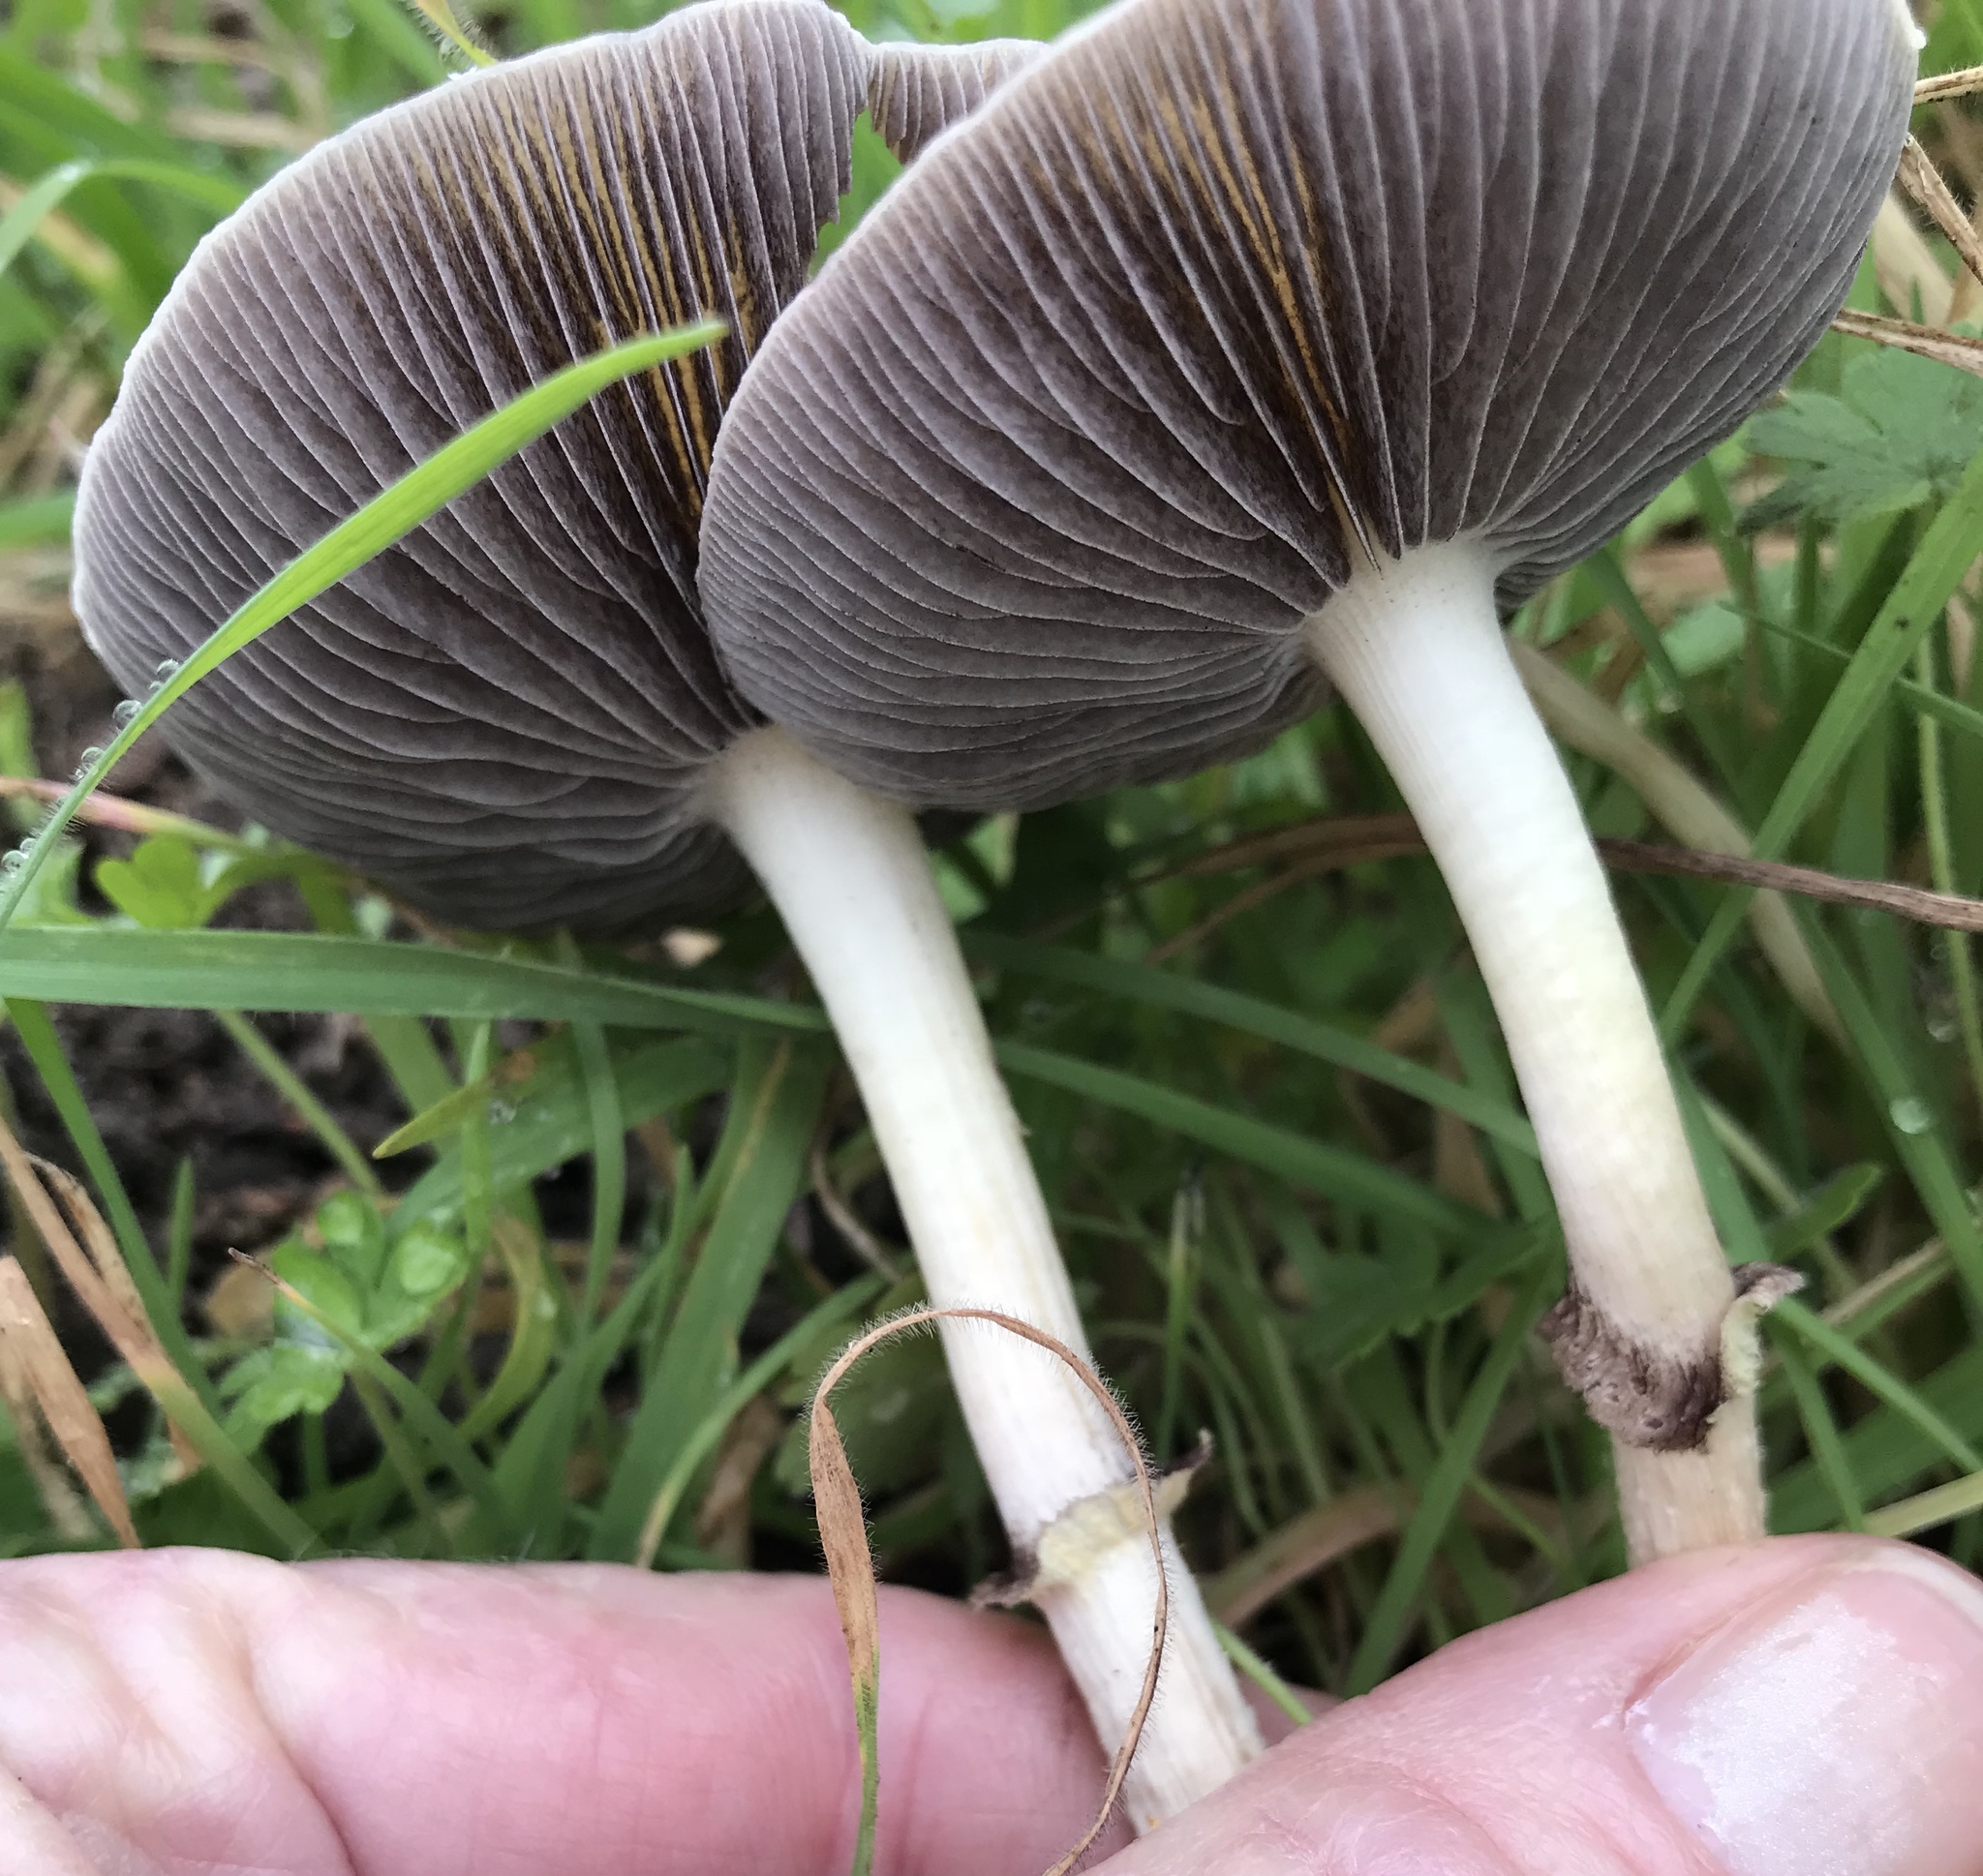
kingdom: Fungi
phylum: Basidiomycota
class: Agaricomycetes
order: Agaricales
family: Strophariaceae
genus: Leratiomyces
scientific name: Leratiomyces percevalii
